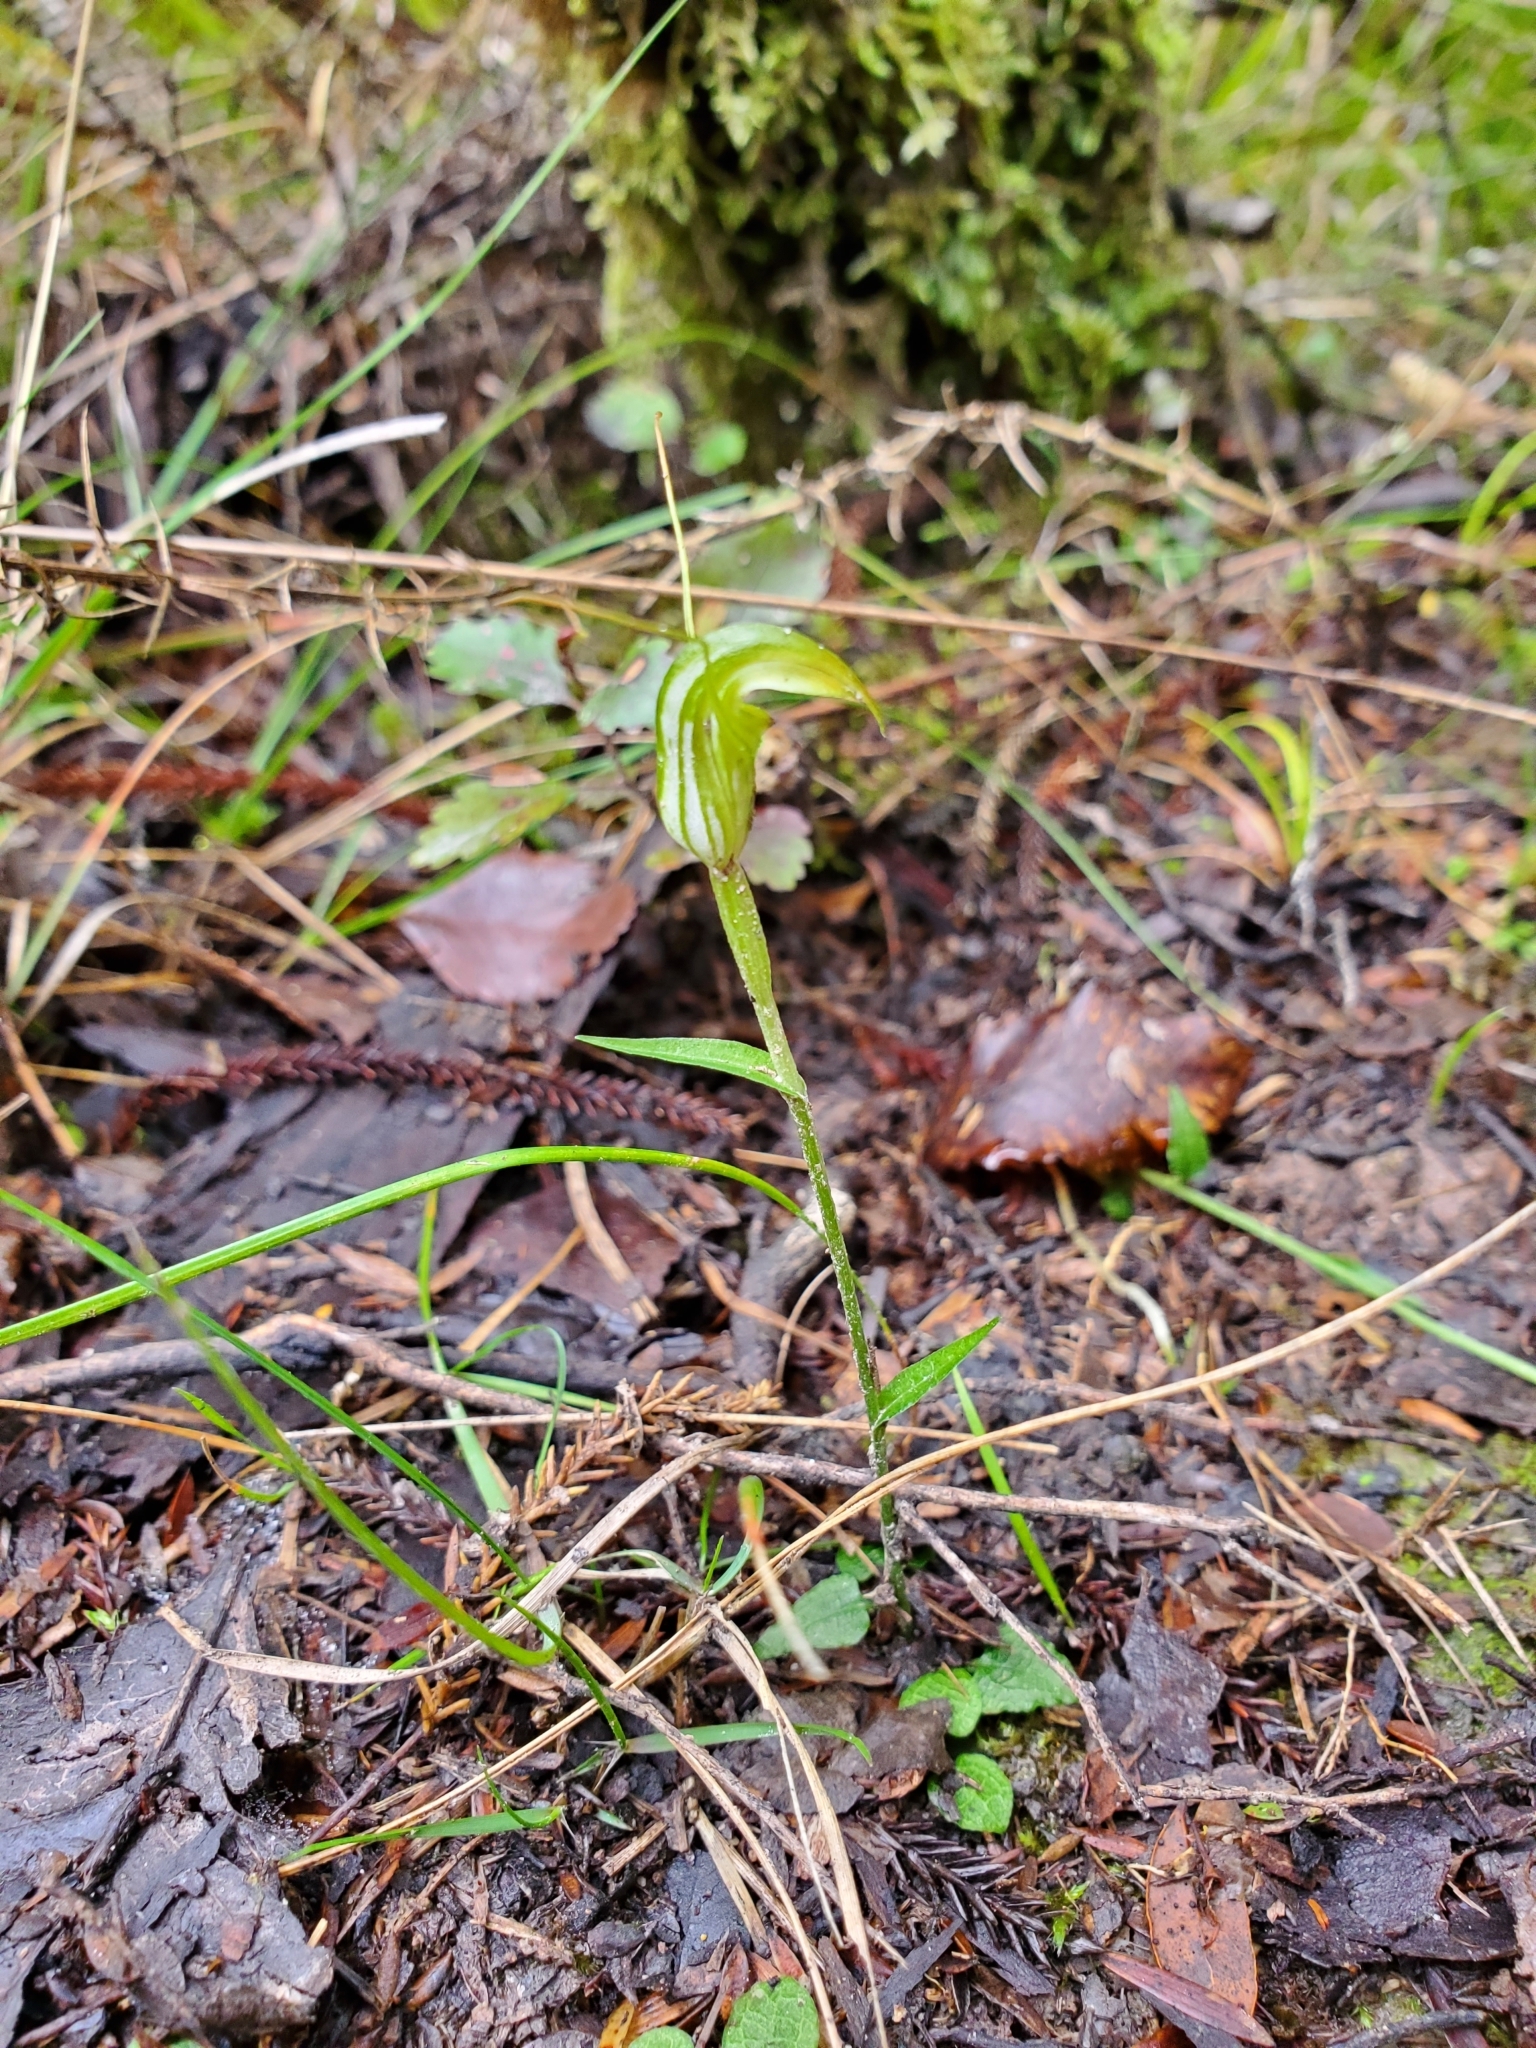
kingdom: Plantae
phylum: Tracheophyta
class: Liliopsida
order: Asparagales
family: Orchidaceae
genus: Pterostylis
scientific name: Pterostylis trullifolia
